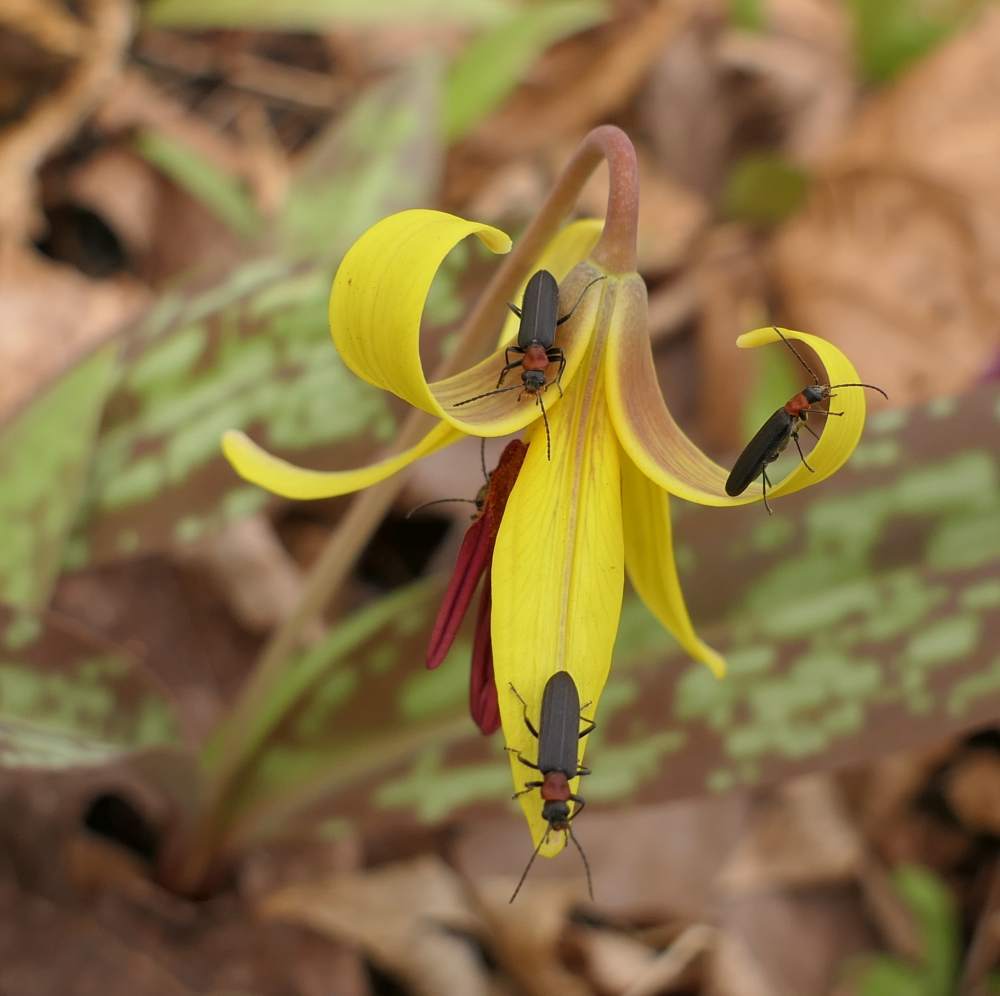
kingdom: Animalia
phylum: Arthropoda
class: Insecta
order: Coleoptera
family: Oedemeridae
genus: Ischnomera
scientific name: Ischnomera
